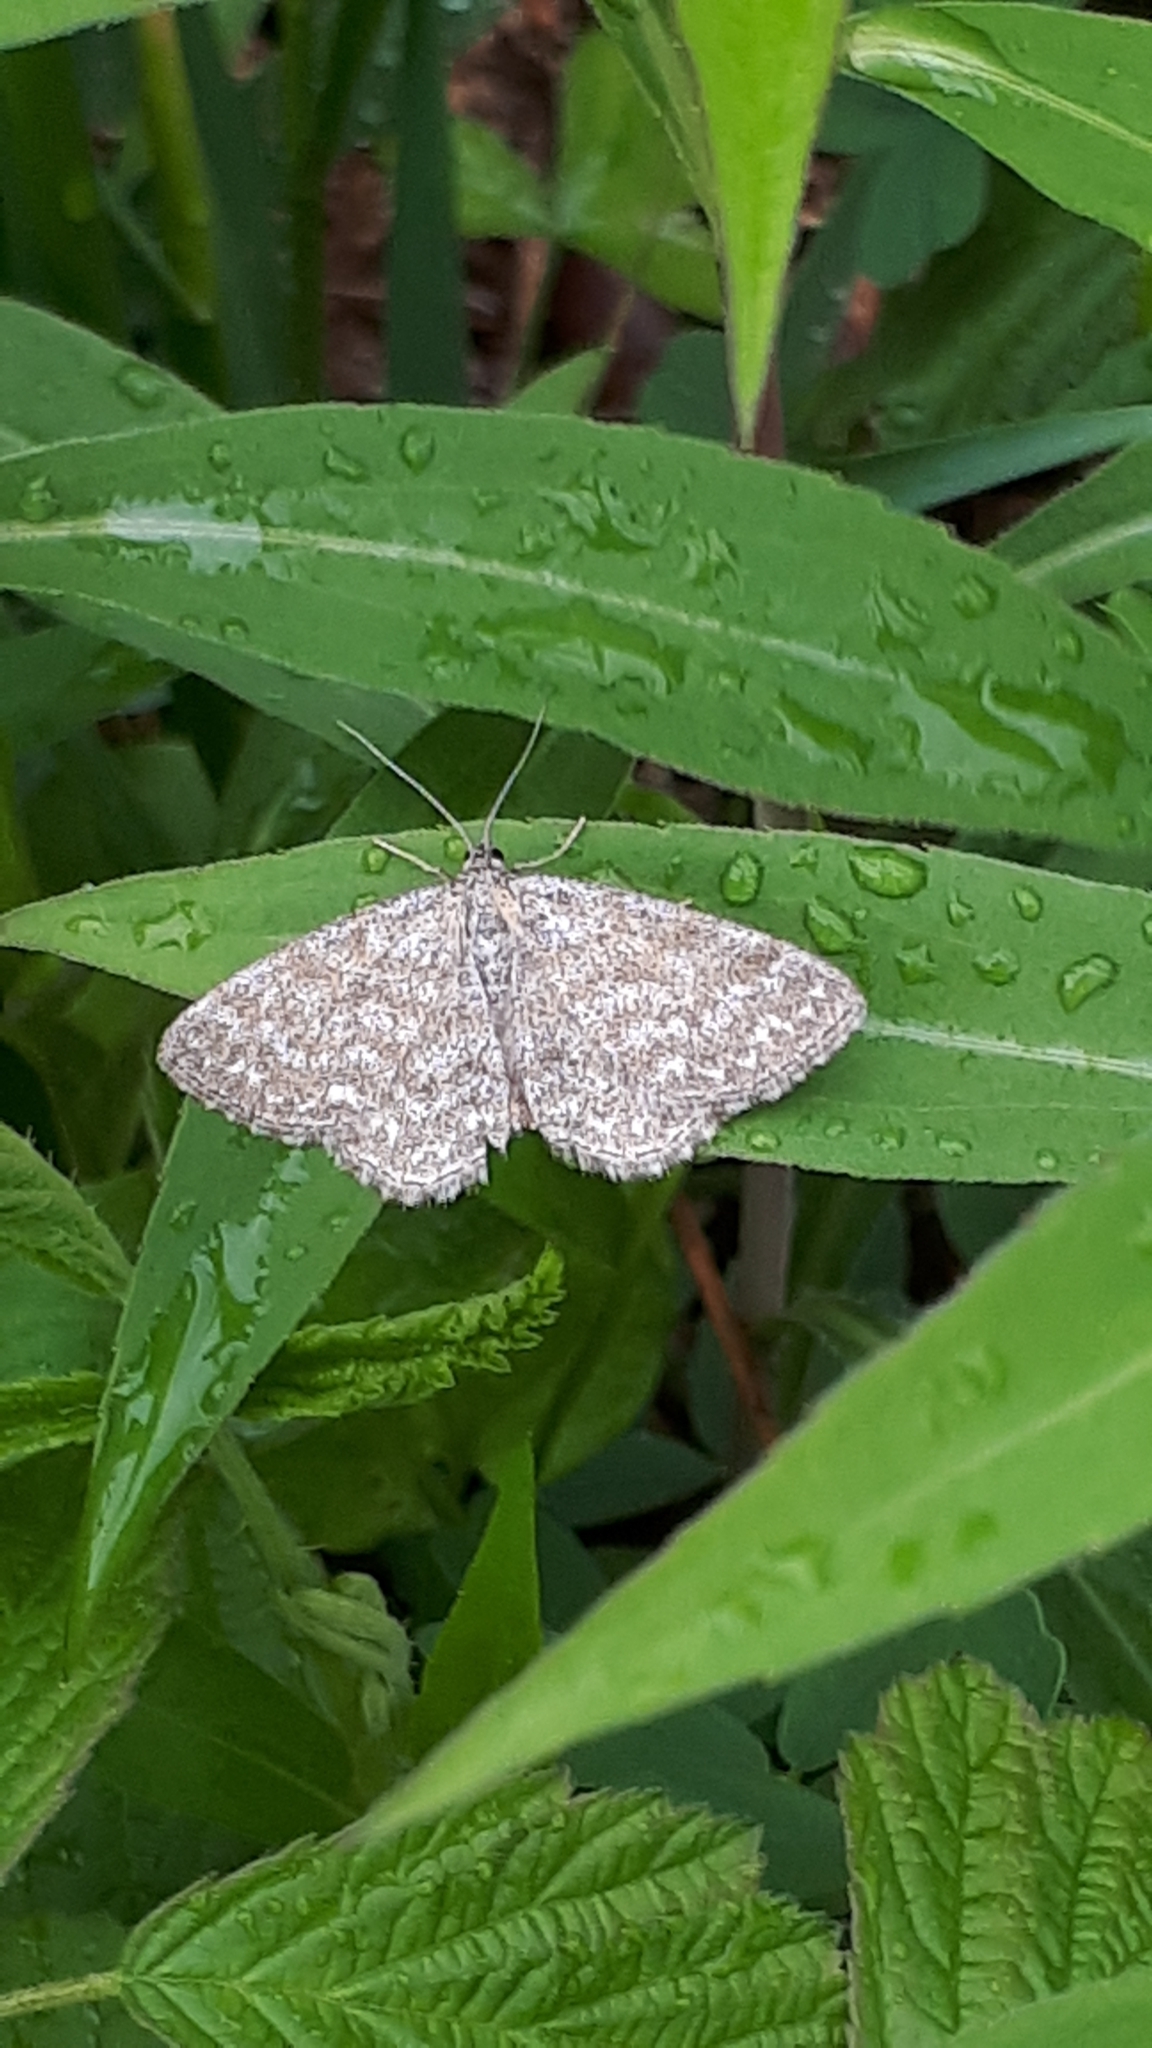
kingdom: Animalia
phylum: Arthropoda
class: Insecta
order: Lepidoptera
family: Geometridae
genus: Scopula
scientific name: Scopula immorata
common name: Lewes wave
